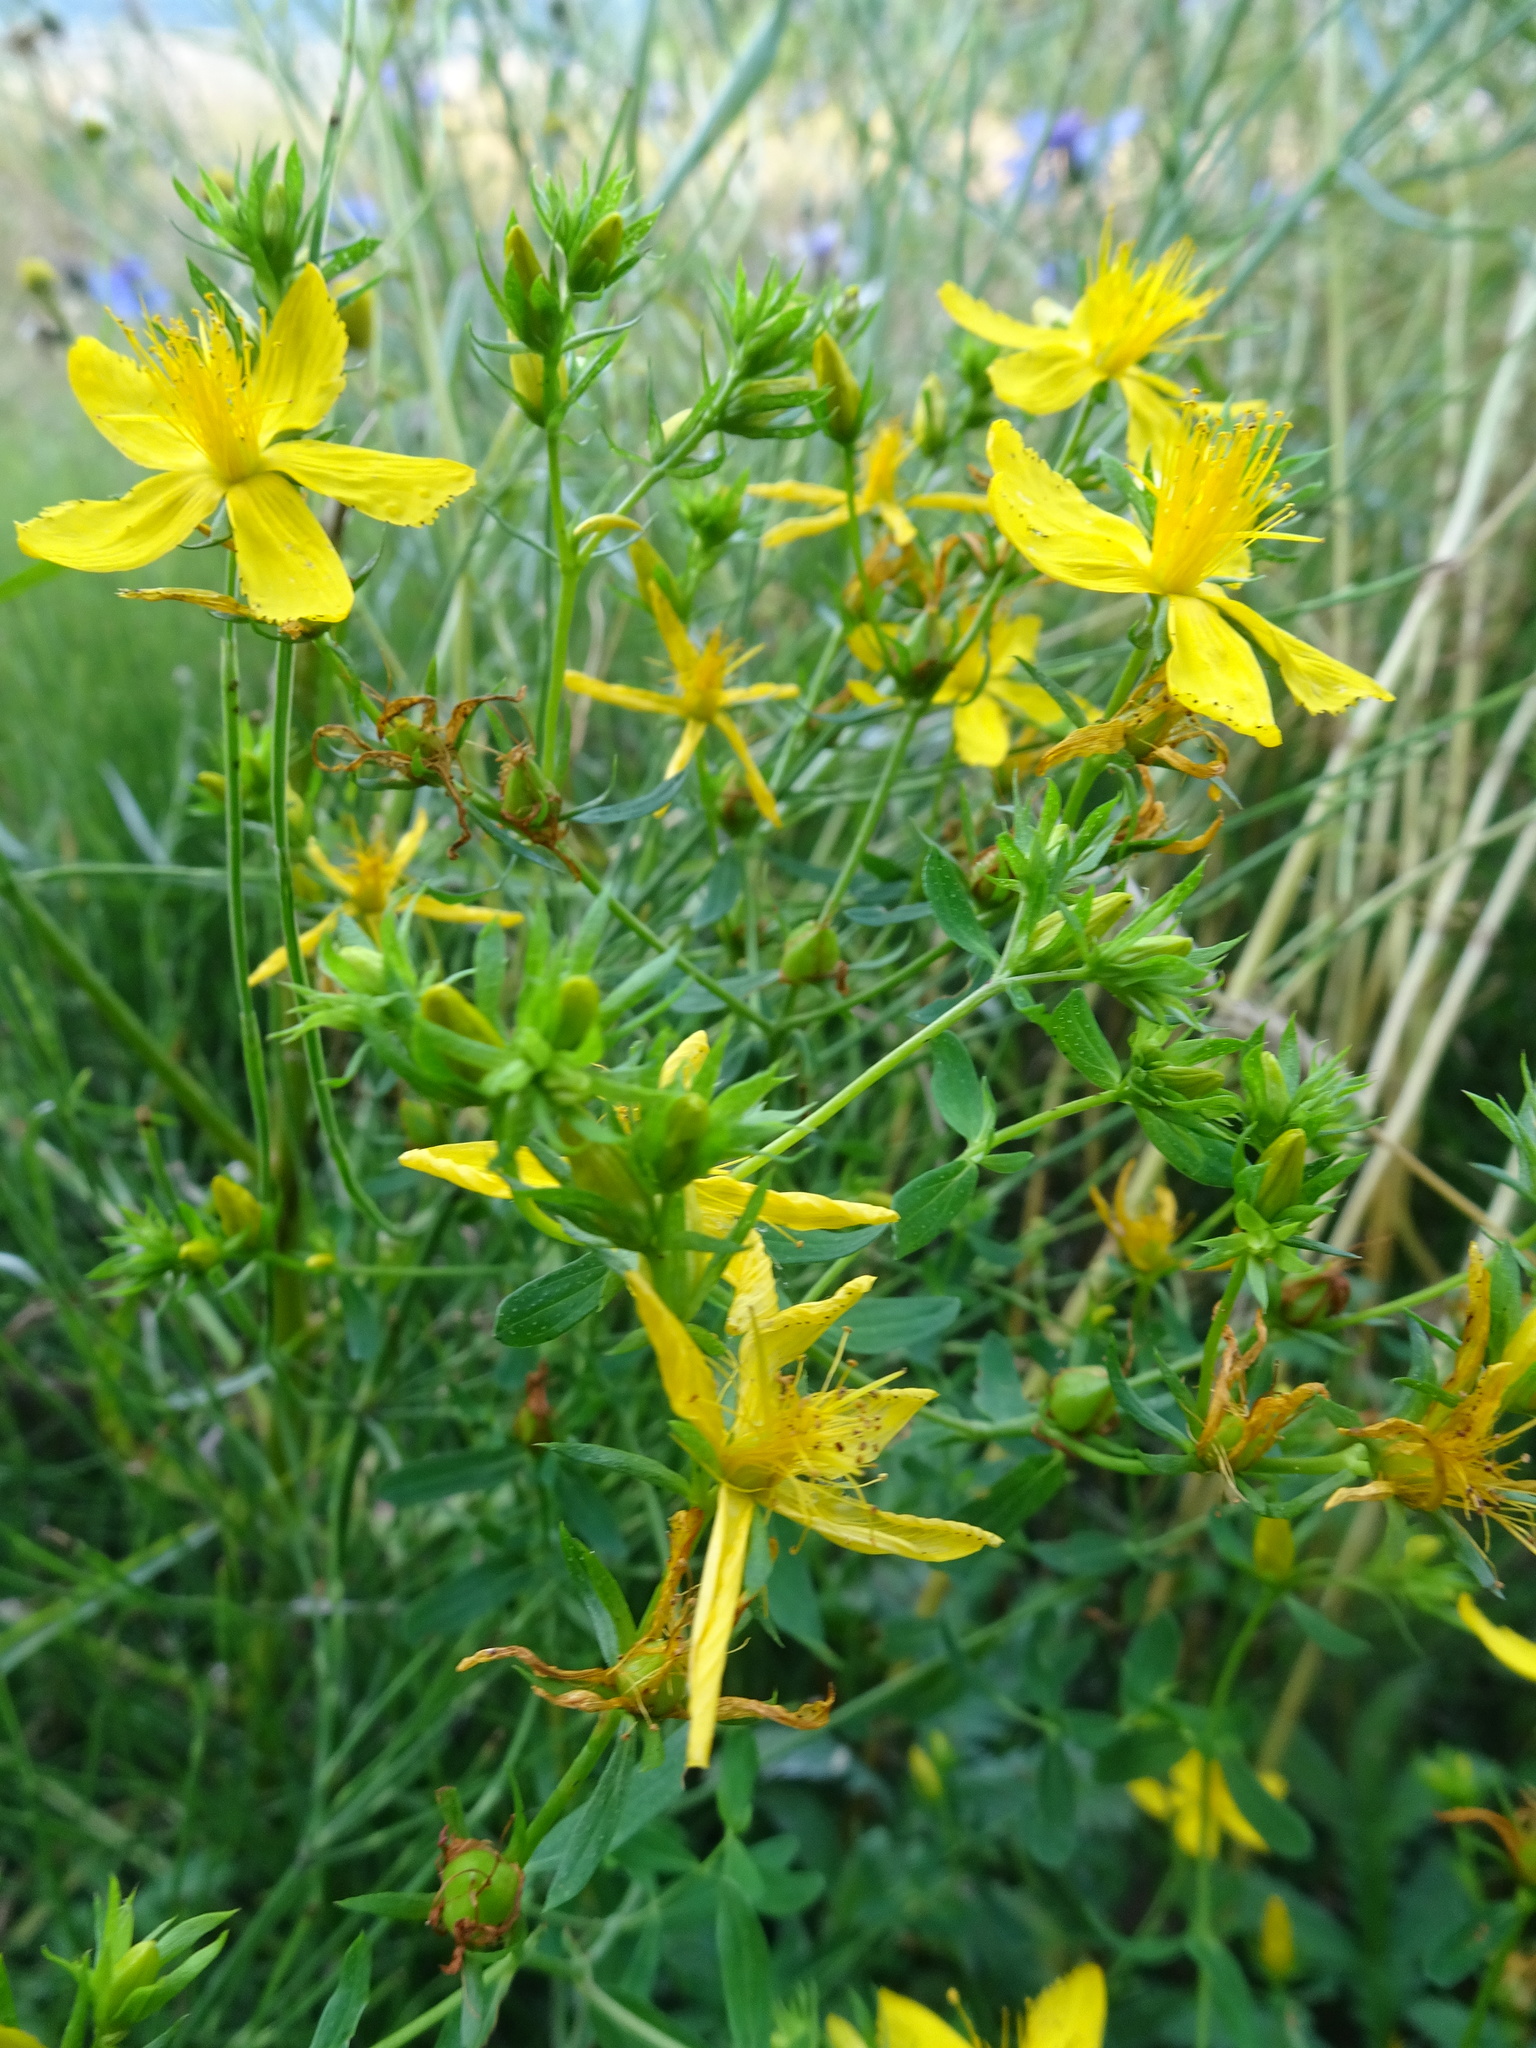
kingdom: Plantae
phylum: Tracheophyta
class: Magnoliopsida
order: Malpighiales
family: Hypericaceae
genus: Hypericum
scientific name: Hypericum perforatum
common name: Common st. johnswort
